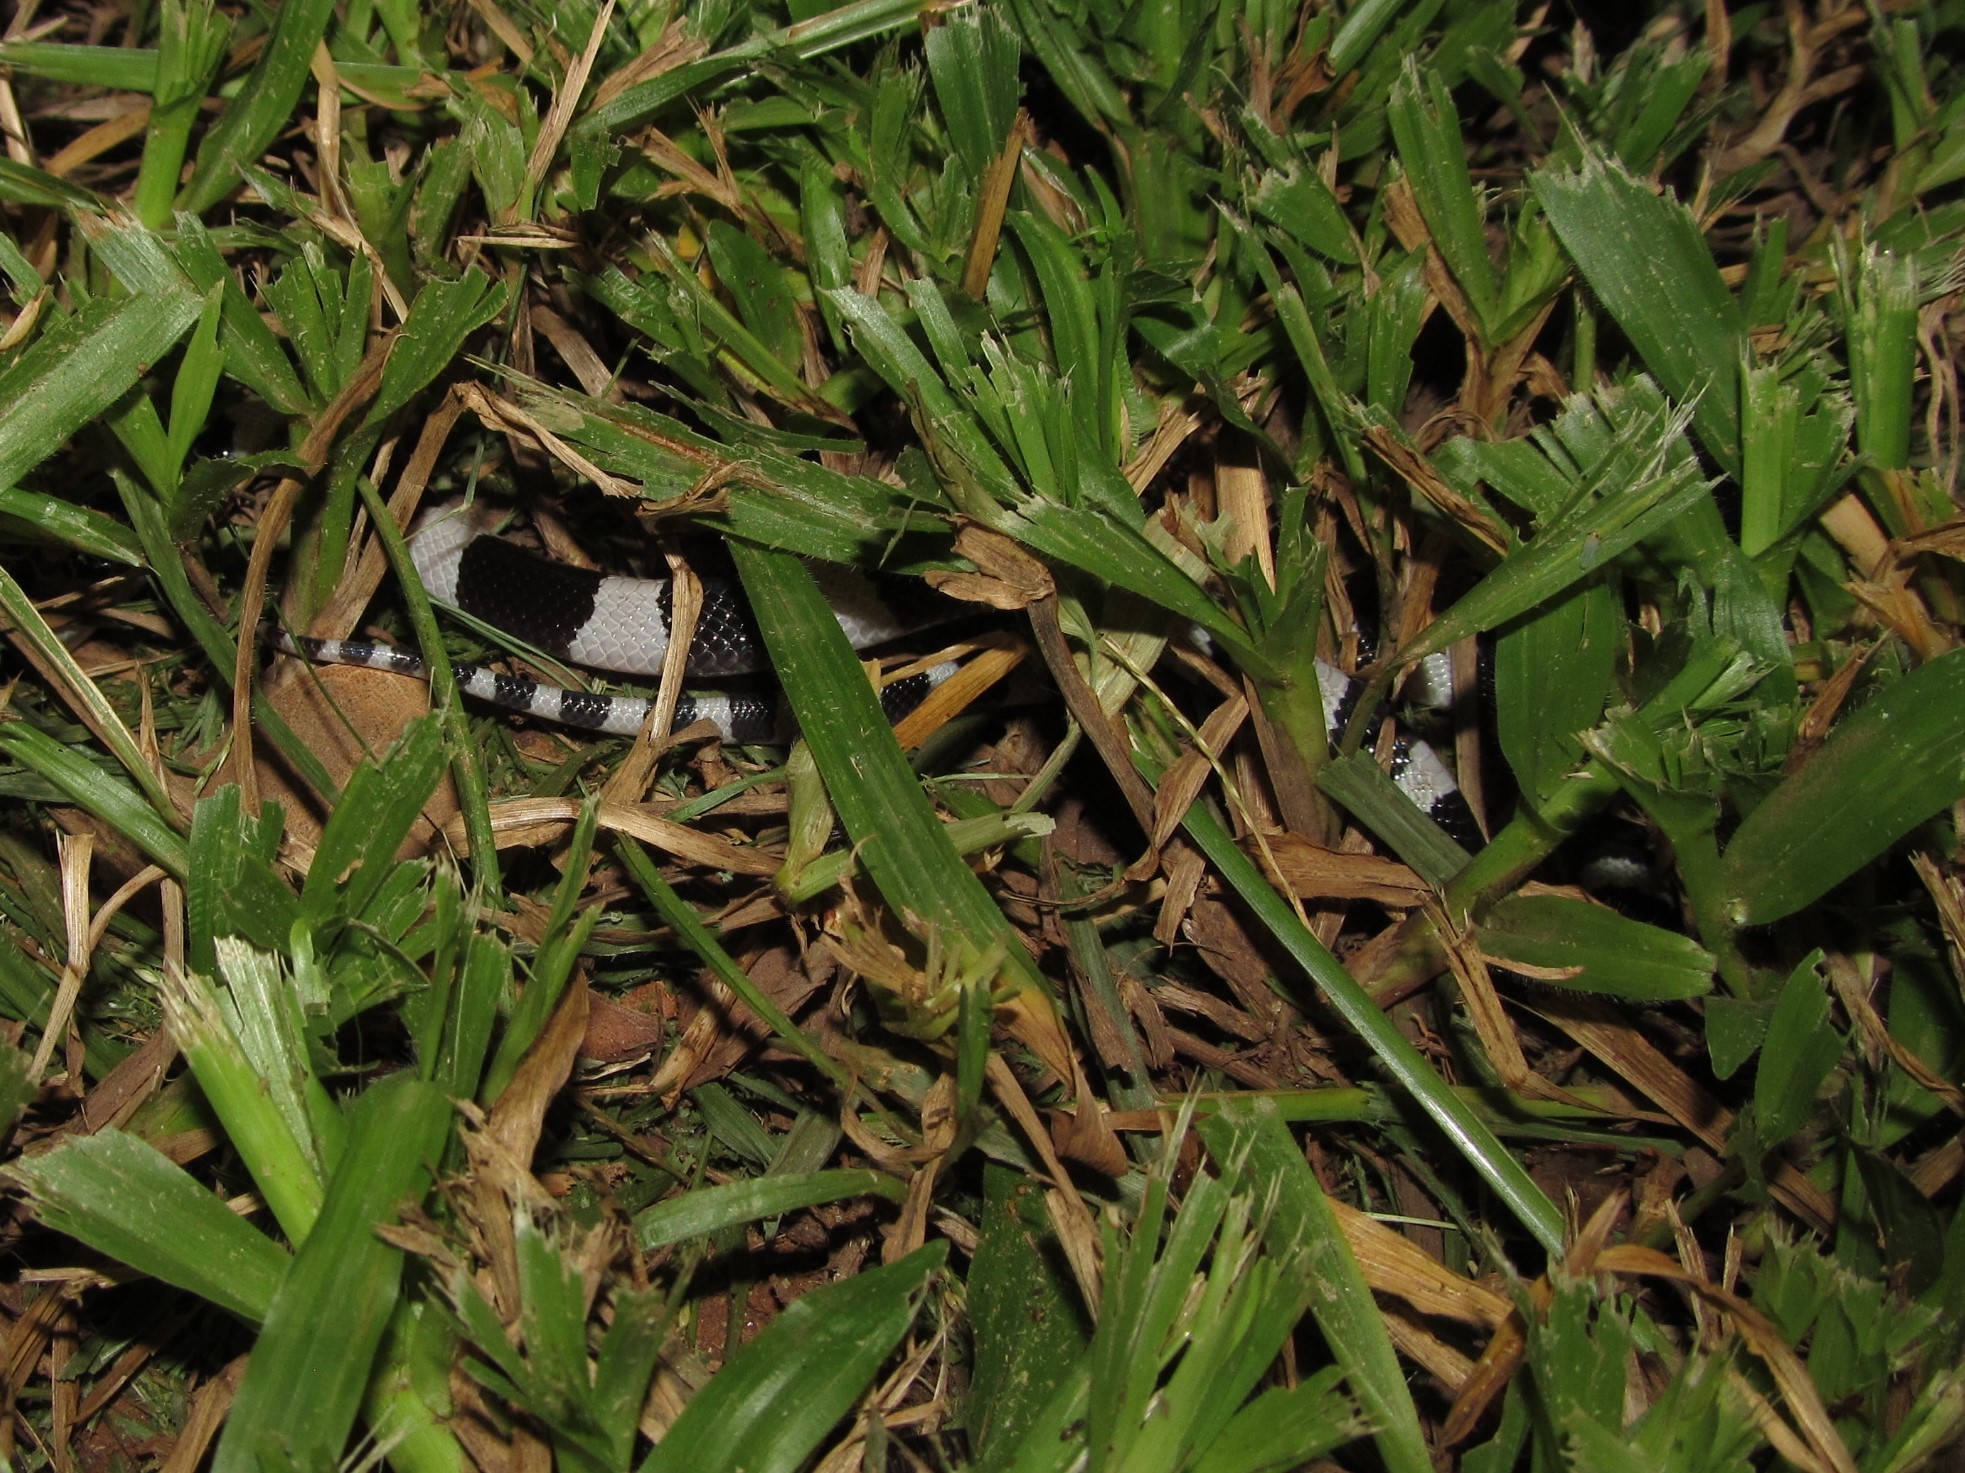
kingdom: Animalia
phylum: Chordata
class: Squamata
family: Elapidae
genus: Bungarus
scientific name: Bungarus candidus
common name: Blue krait/malayan krait
